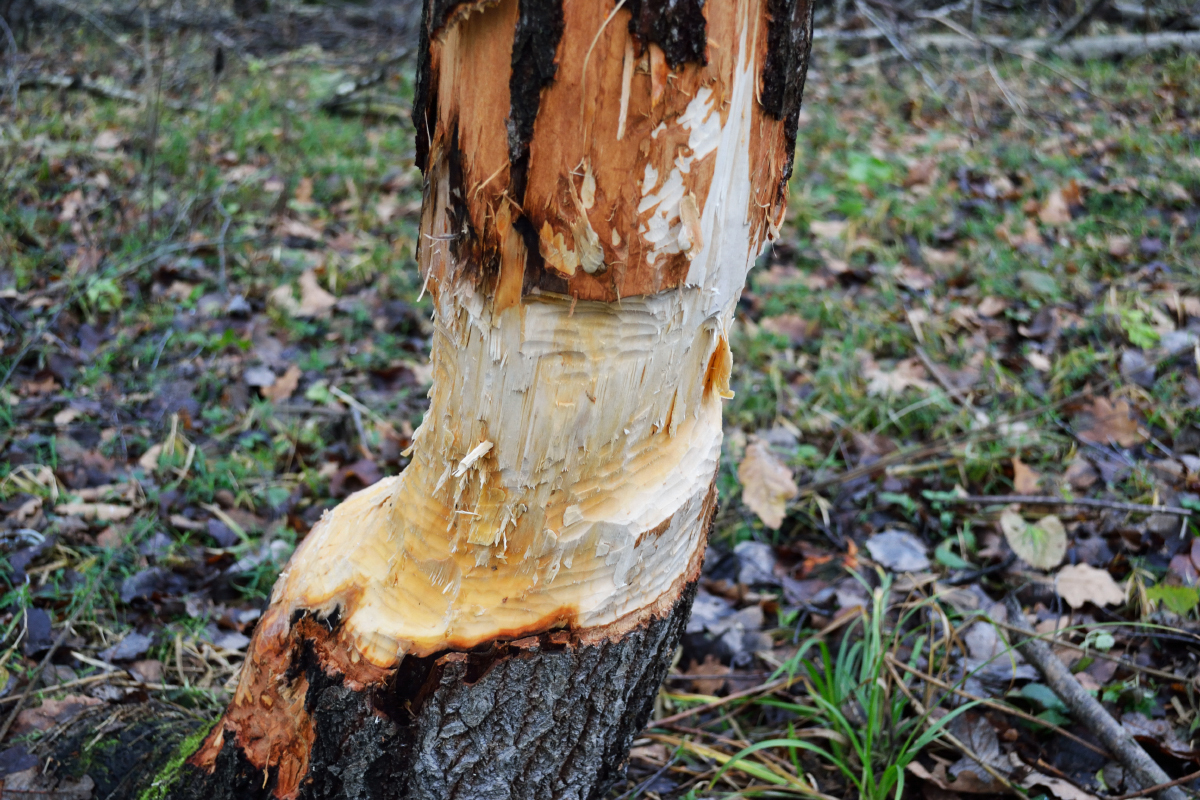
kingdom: Animalia
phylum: Chordata
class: Mammalia
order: Rodentia
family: Castoridae
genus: Castor
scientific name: Castor fiber
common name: Eurasian beaver
